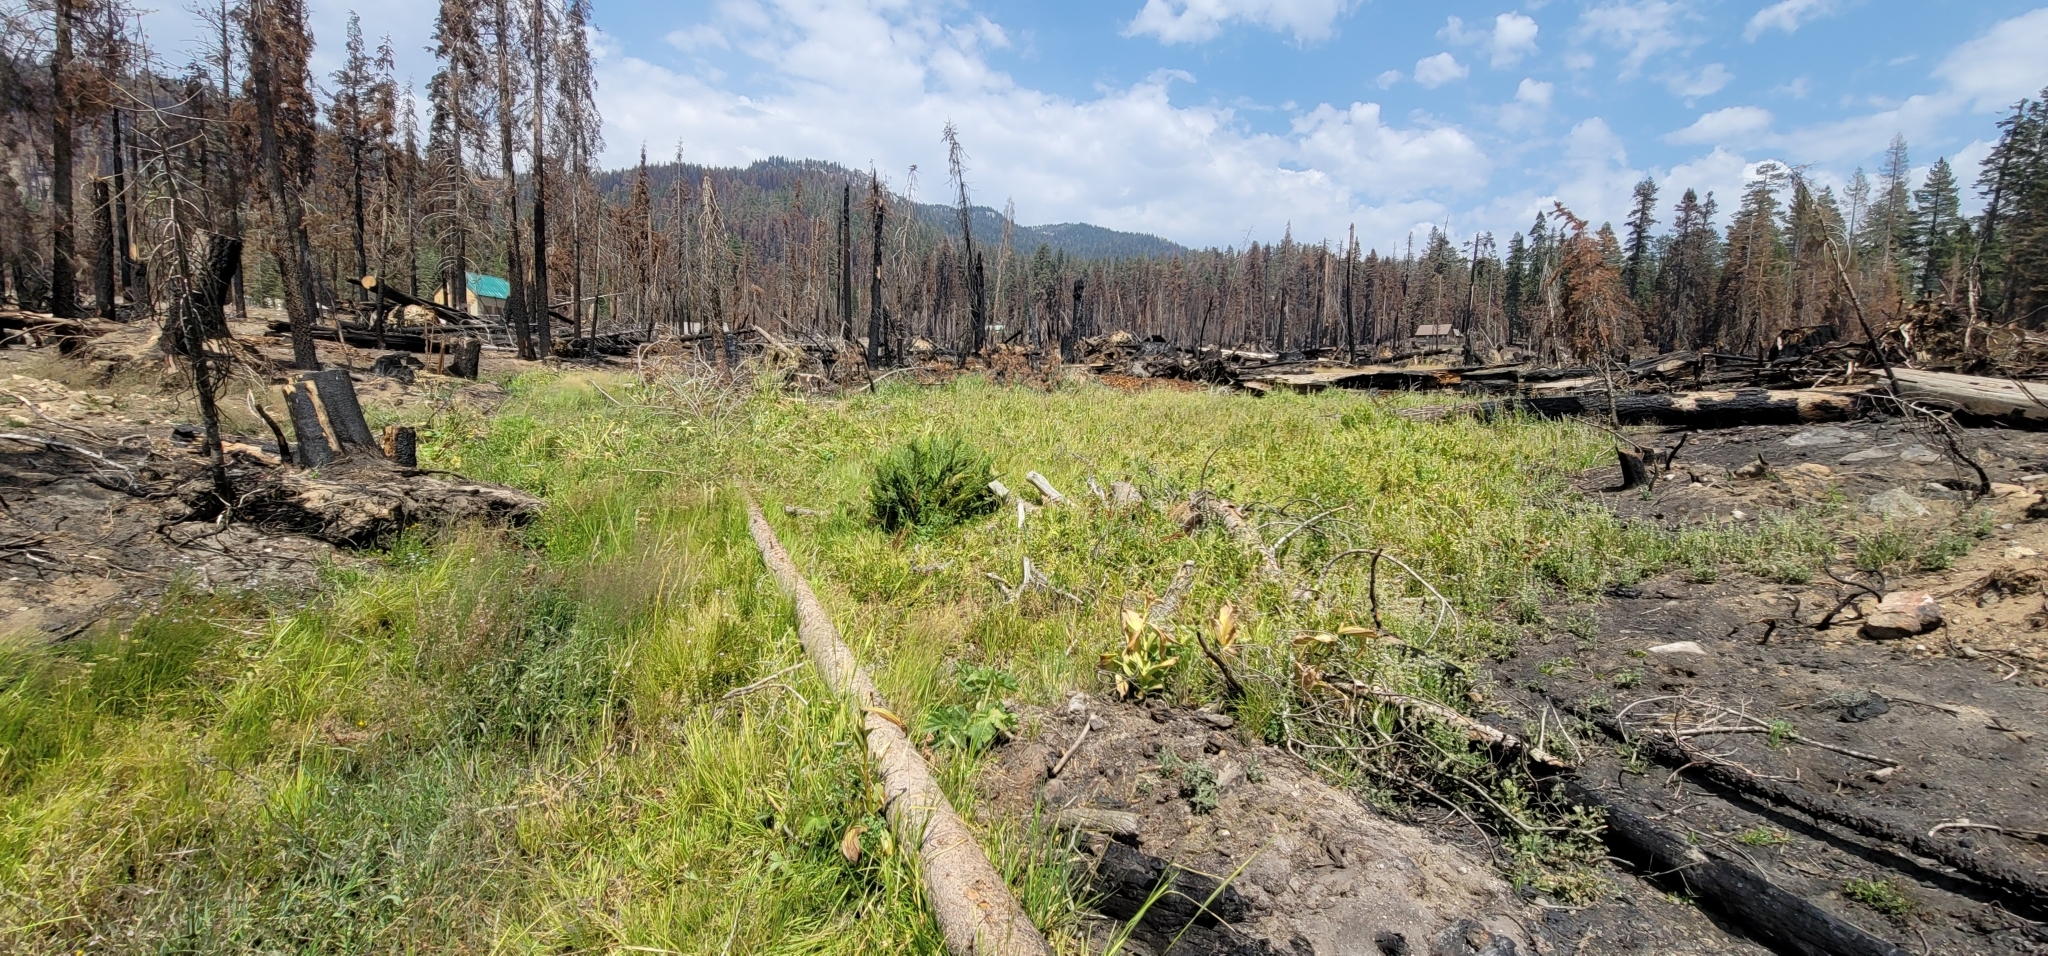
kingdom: Plantae
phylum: Tracheophyta
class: Liliopsida
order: Poales
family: Poaceae
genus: Cinna
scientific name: Cinna bolanderi
